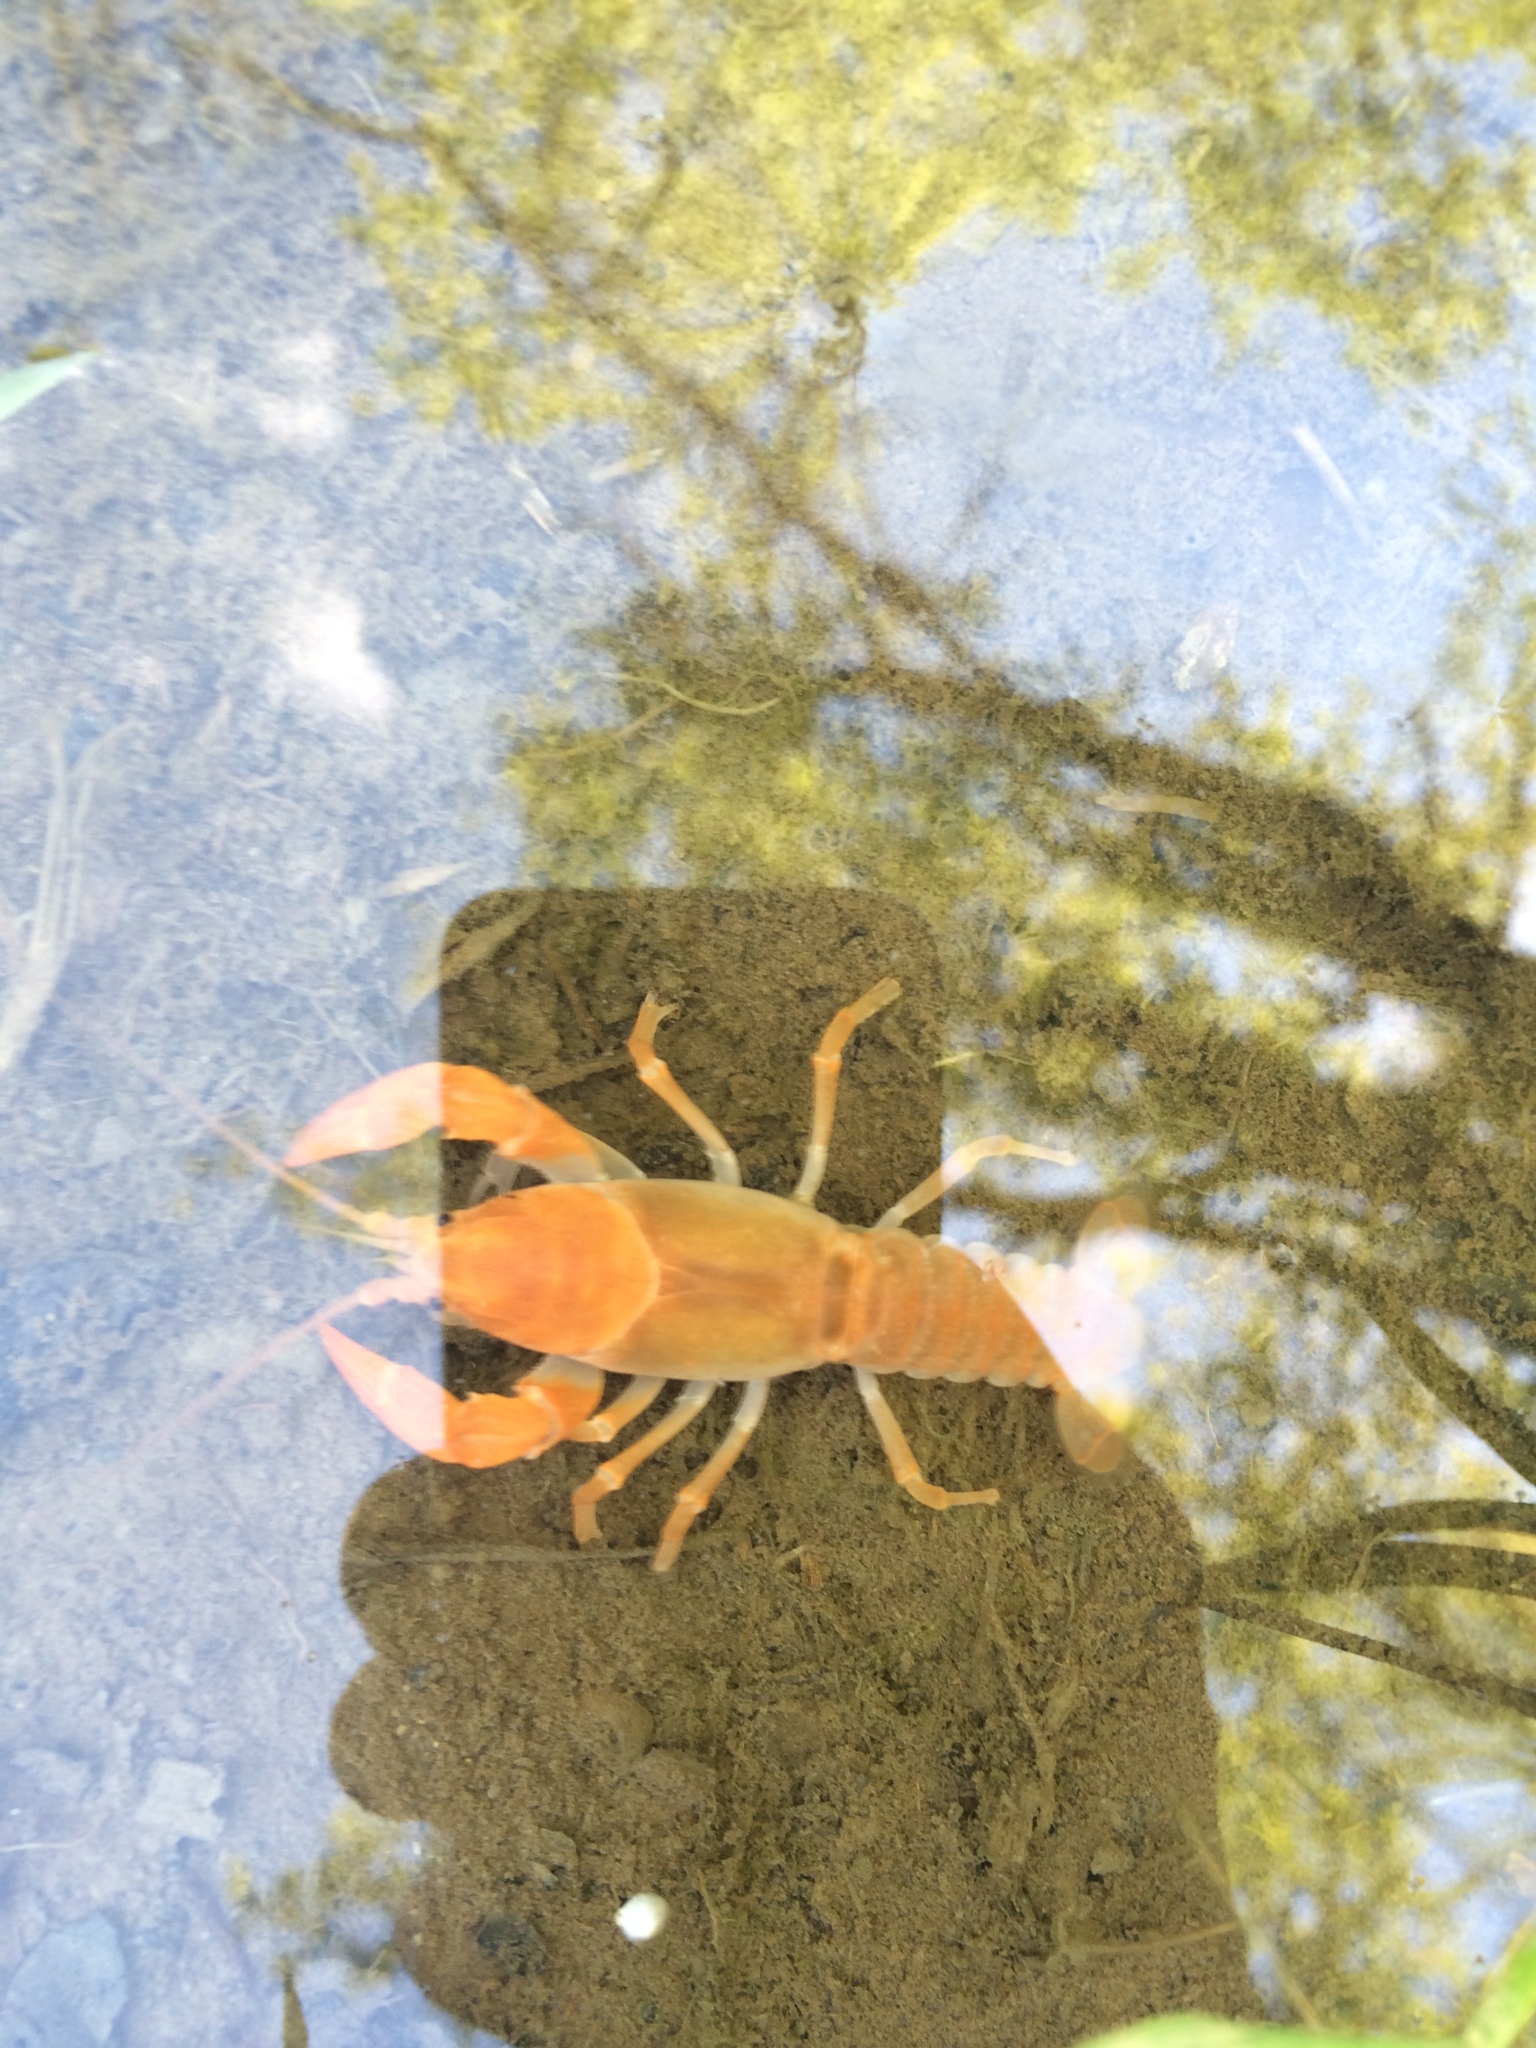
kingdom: Animalia
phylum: Arthropoda
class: Malacostraca
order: Decapoda
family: Cambaridae
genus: Cambarus
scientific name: Cambarus dubius
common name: Upland burrowing crayfish
